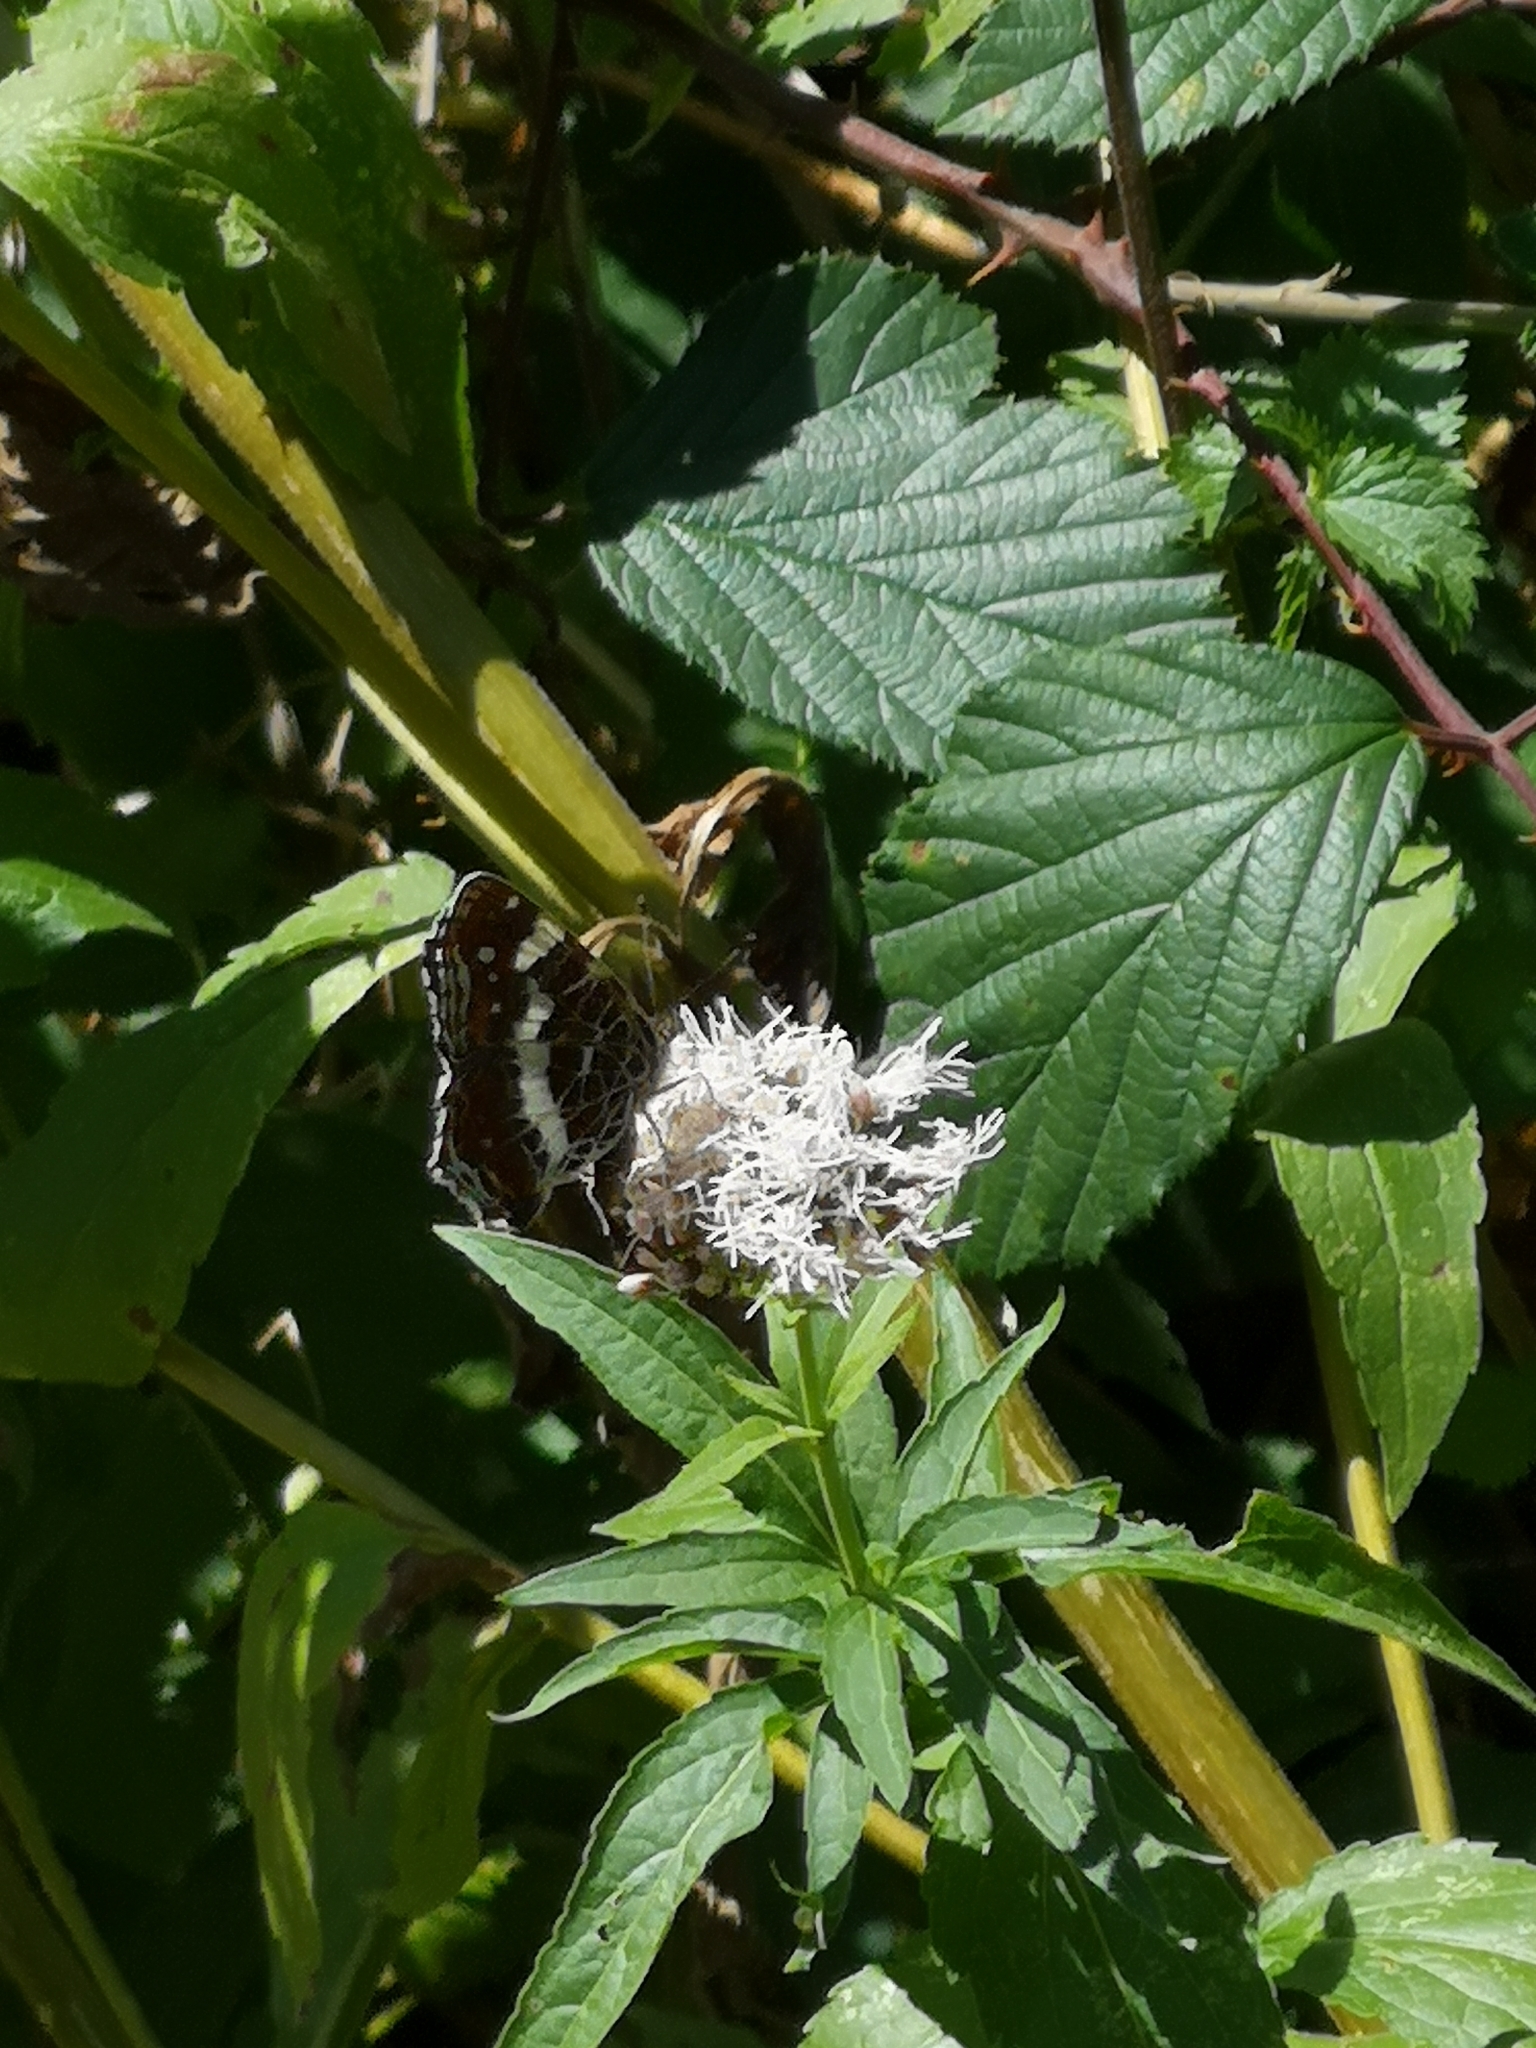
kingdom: Animalia
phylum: Arthropoda
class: Insecta
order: Lepidoptera
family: Nymphalidae
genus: Araschnia
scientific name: Araschnia levana
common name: Map butterfly
